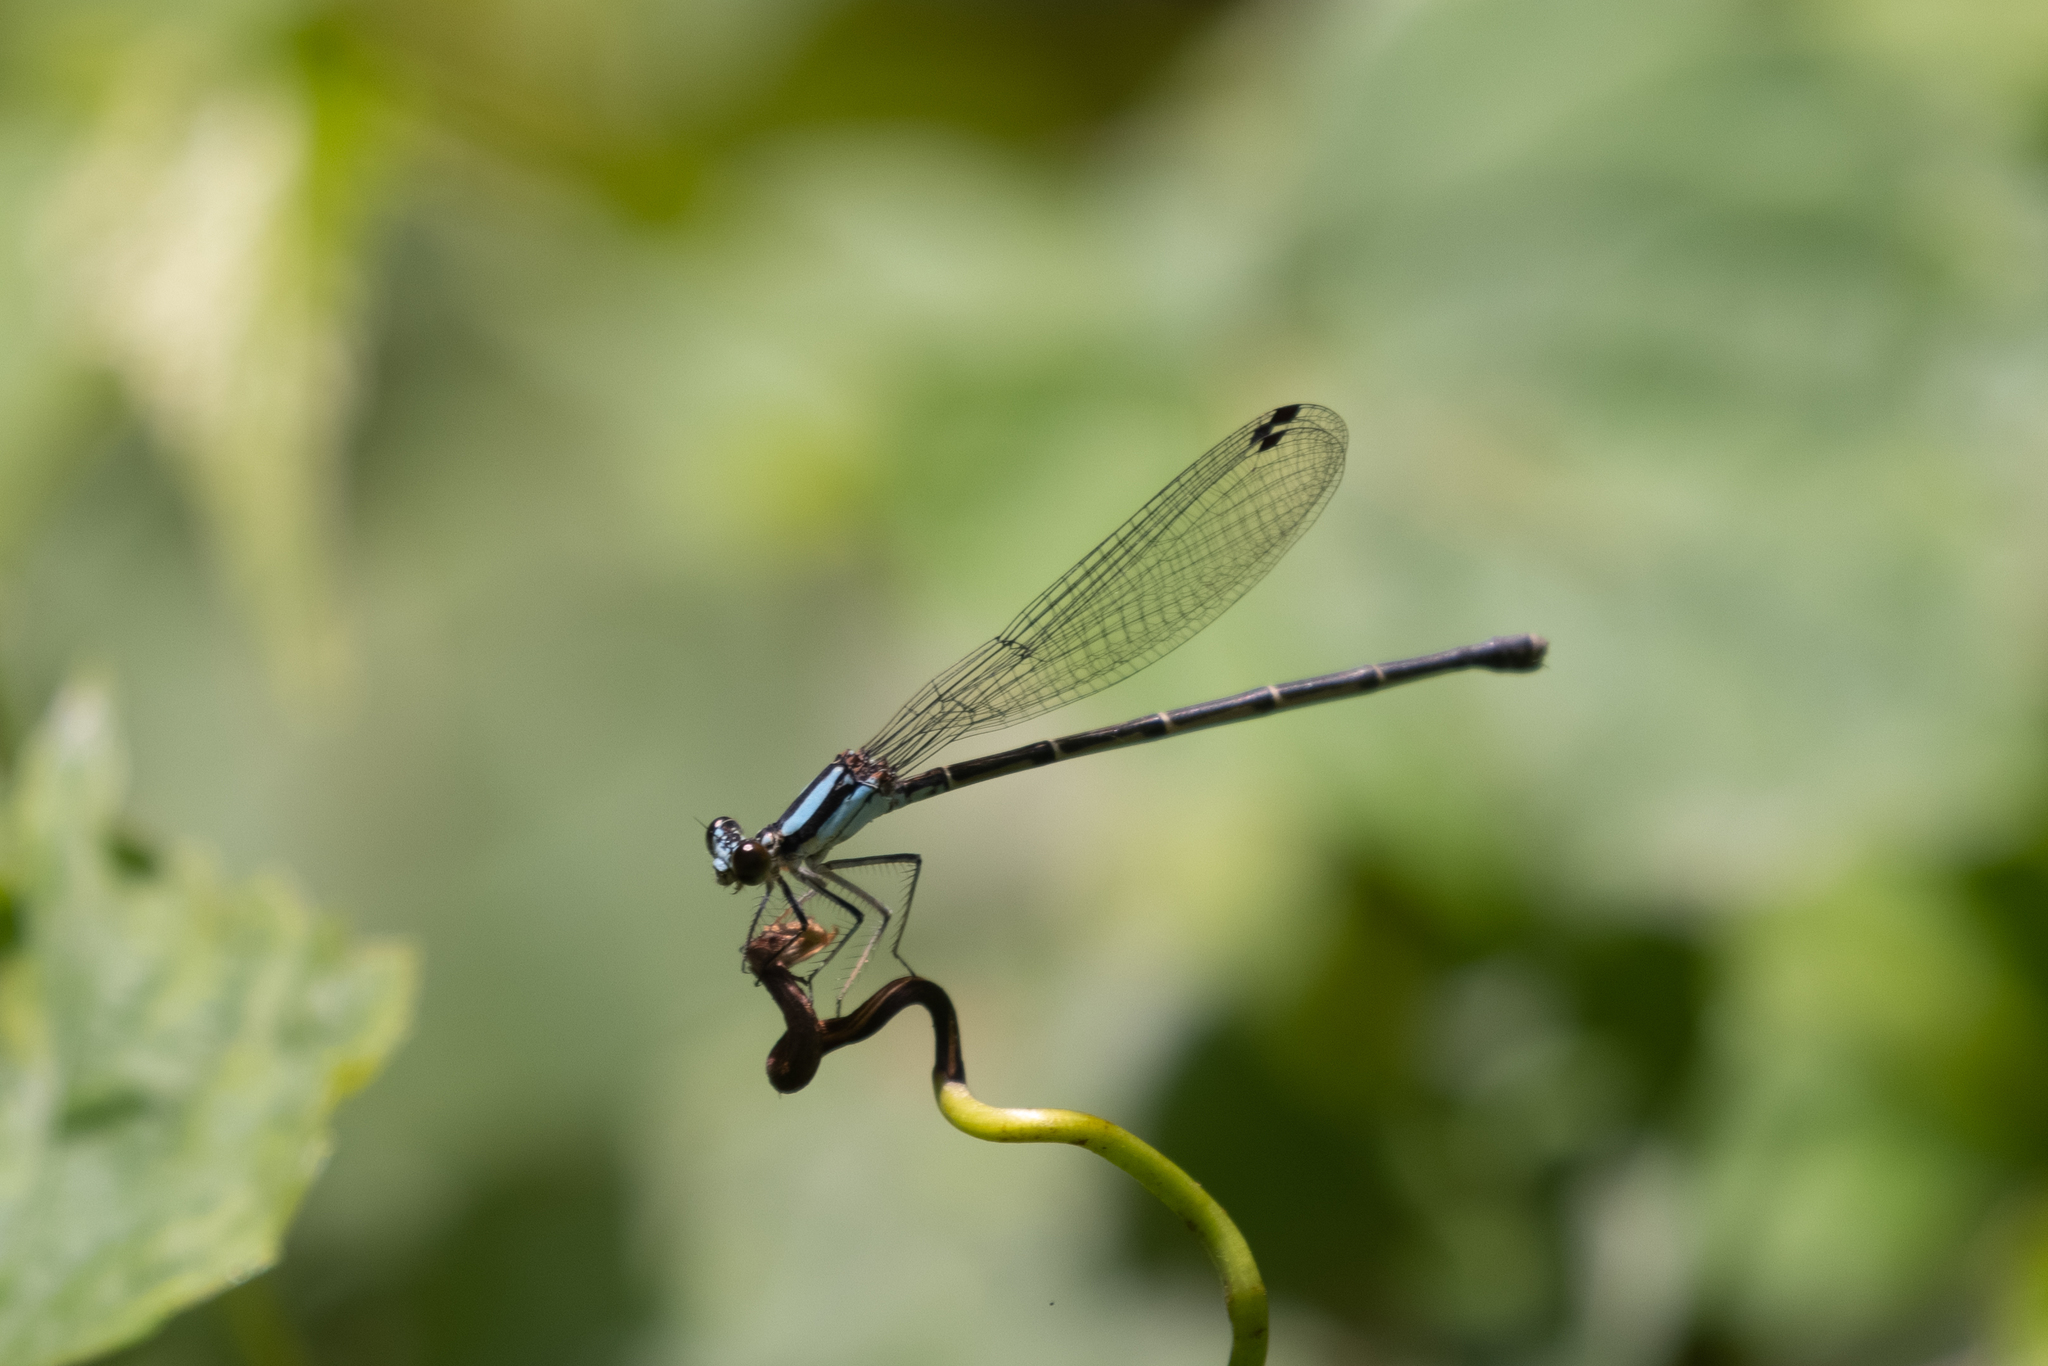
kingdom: Animalia
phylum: Arthropoda
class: Insecta
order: Odonata
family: Coenagrionidae
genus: Argia
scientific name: Argia tibialis
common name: Blue-tipped dancer
